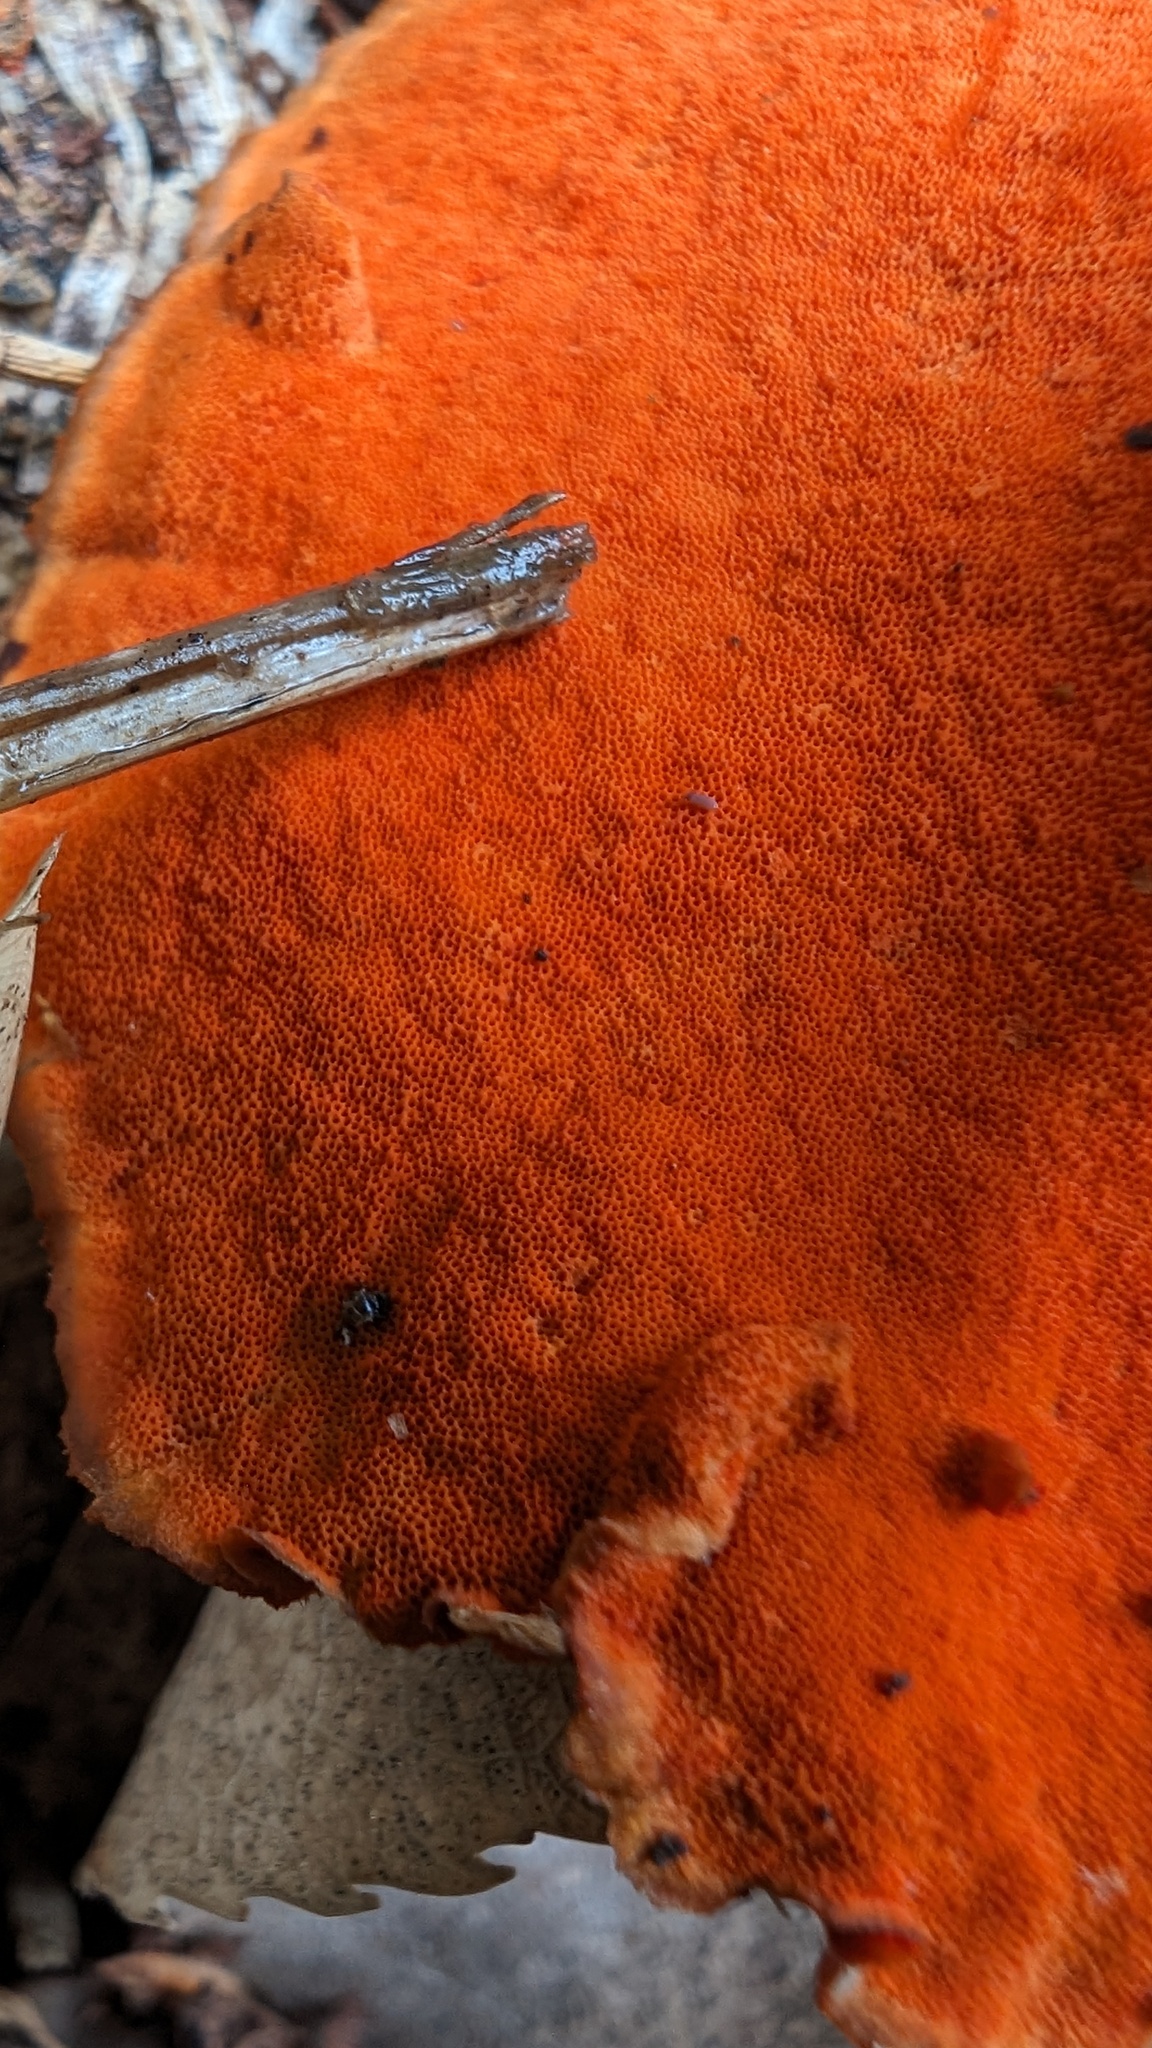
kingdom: Fungi
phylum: Basidiomycota
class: Agaricomycetes
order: Polyporales
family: Polyporaceae
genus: Trametes
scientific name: Trametes coccinea
